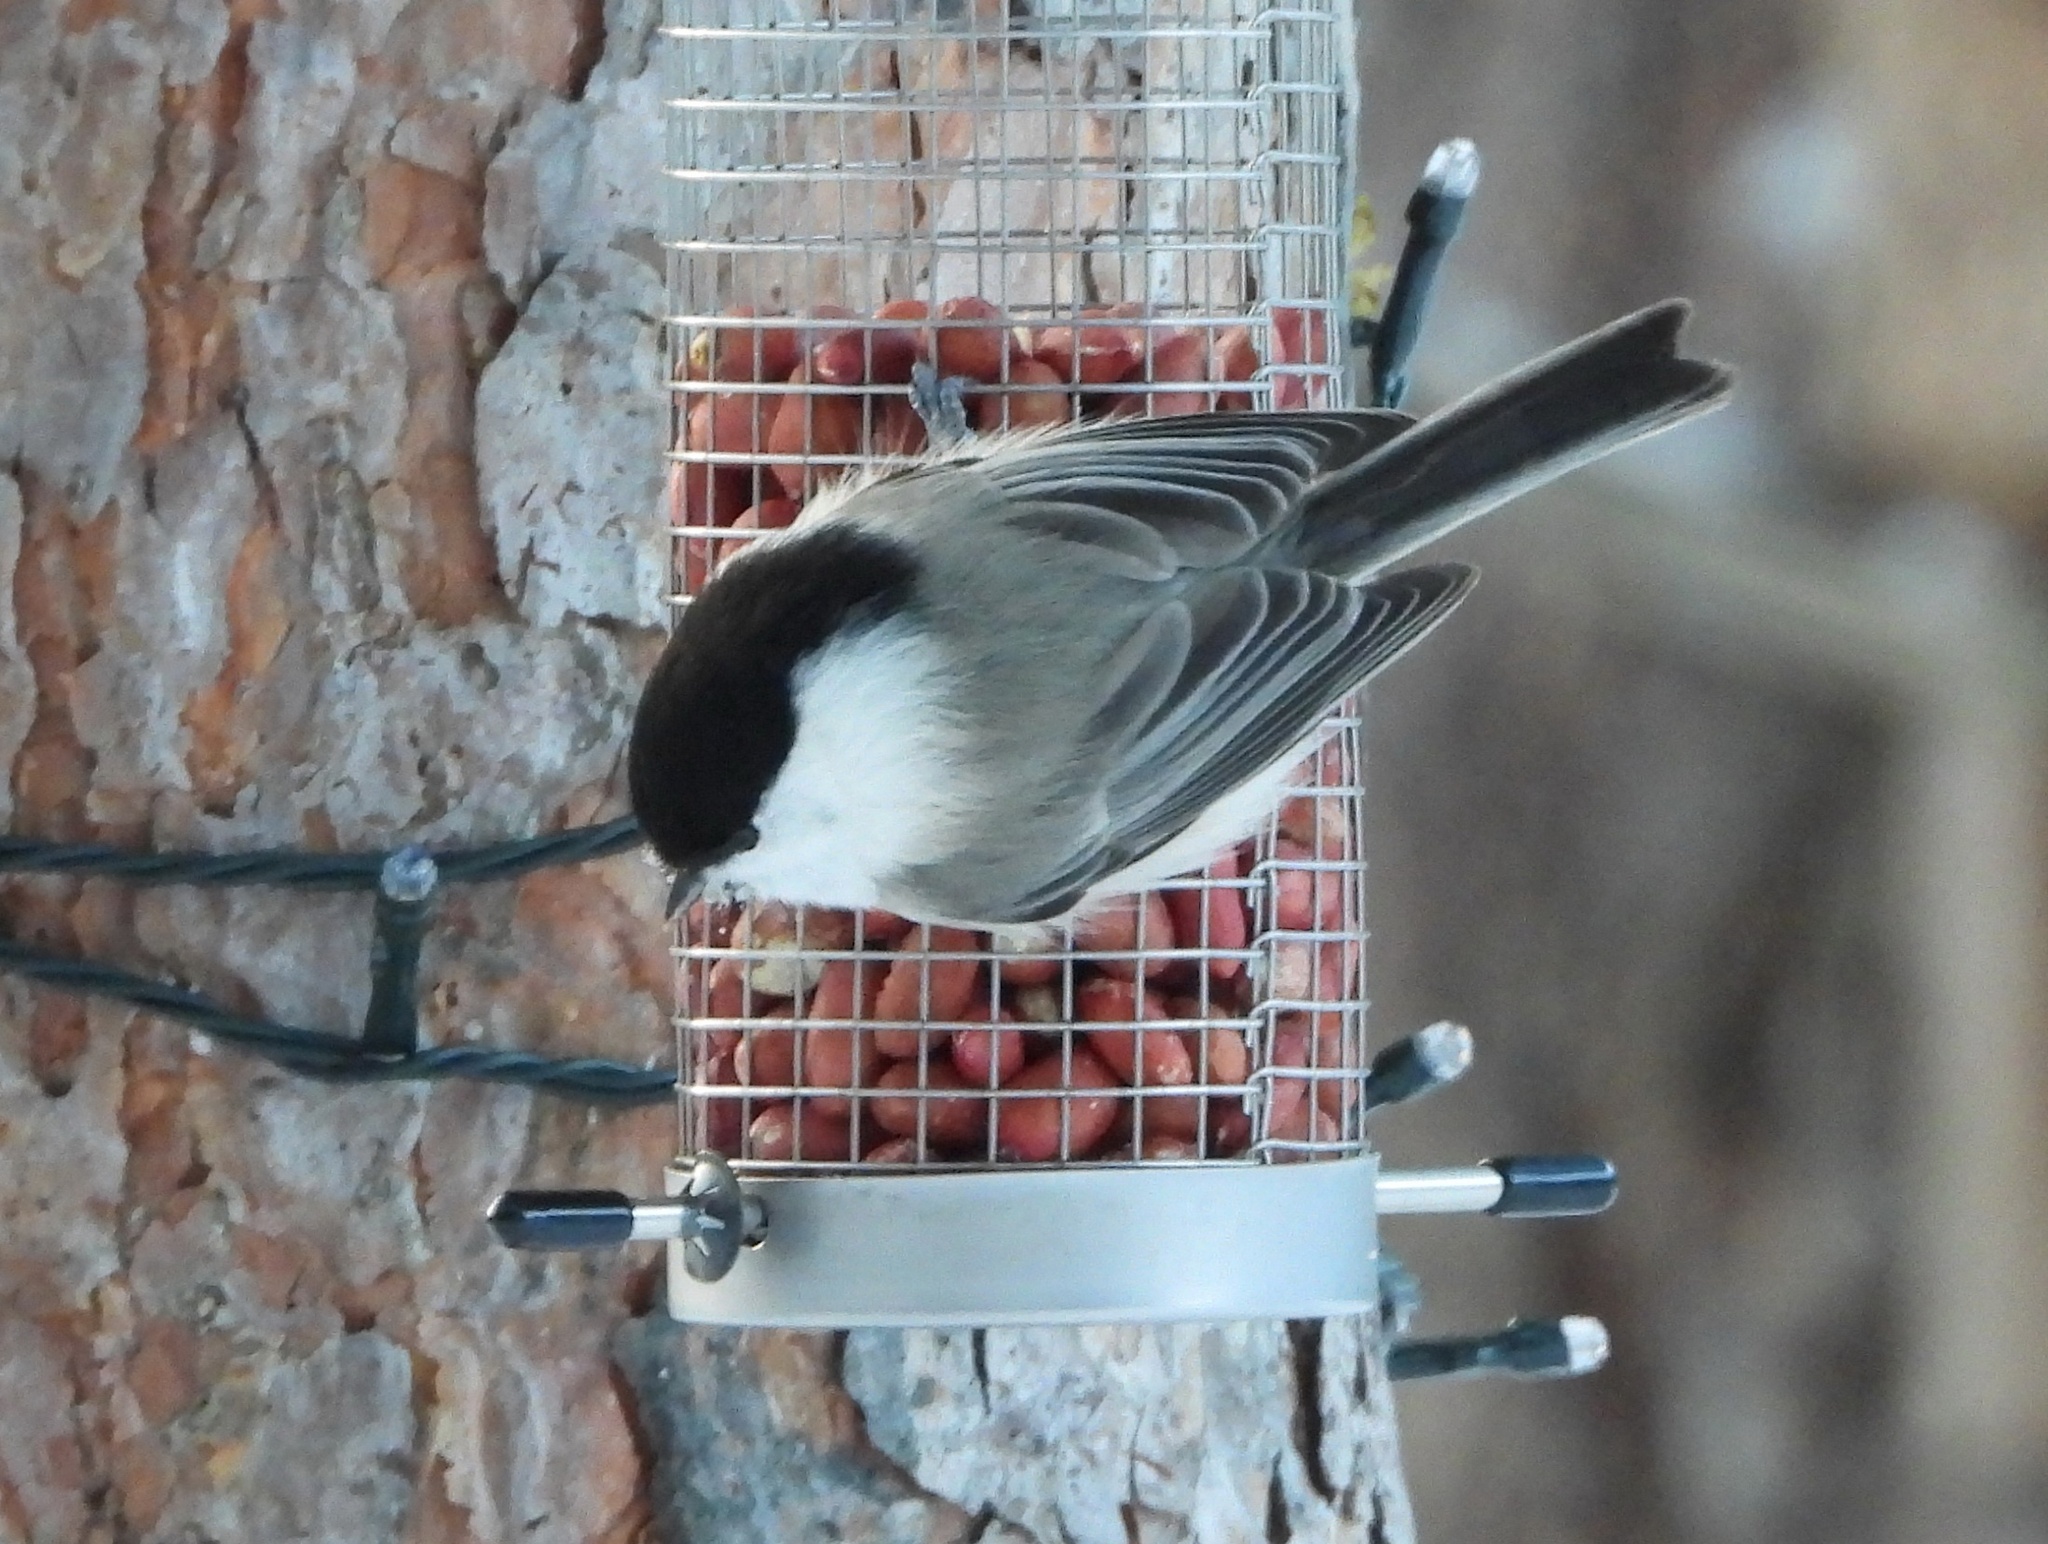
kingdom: Animalia
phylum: Chordata
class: Aves
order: Passeriformes
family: Paridae
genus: Poecile
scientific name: Poecile montanus
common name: Willow tit
